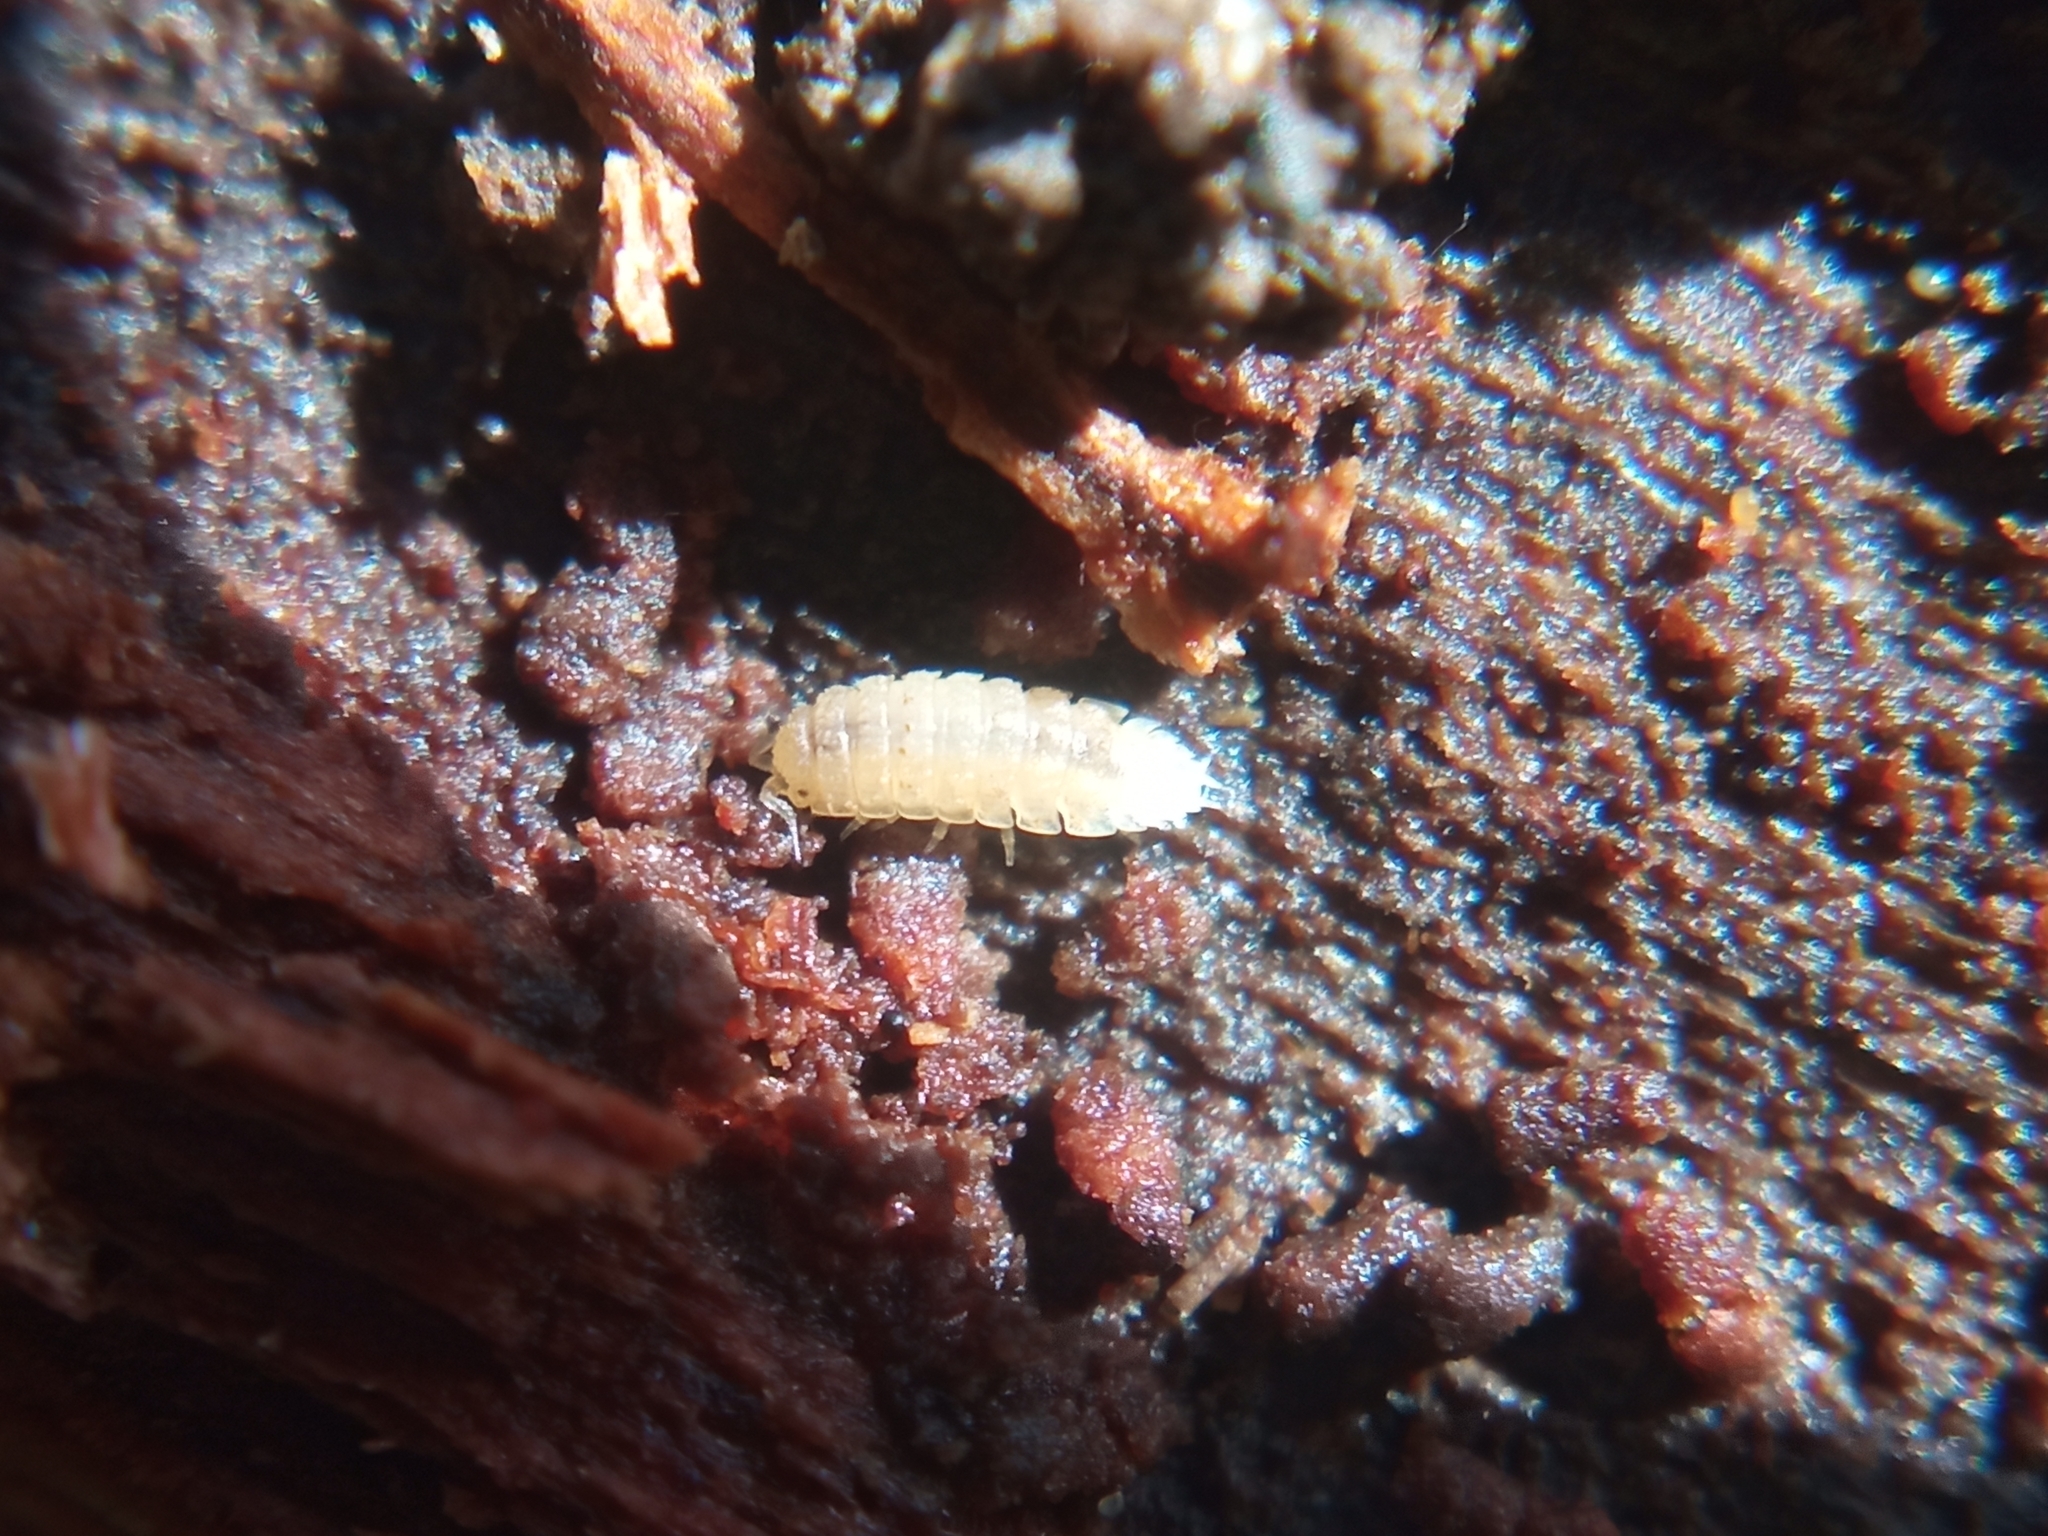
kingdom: Animalia
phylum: Arthropoda
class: Malacostraca
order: Isopoda
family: Trichoniscidae
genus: Haplophthalmus
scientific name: Haplophthalmus danicus
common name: Pillbug
